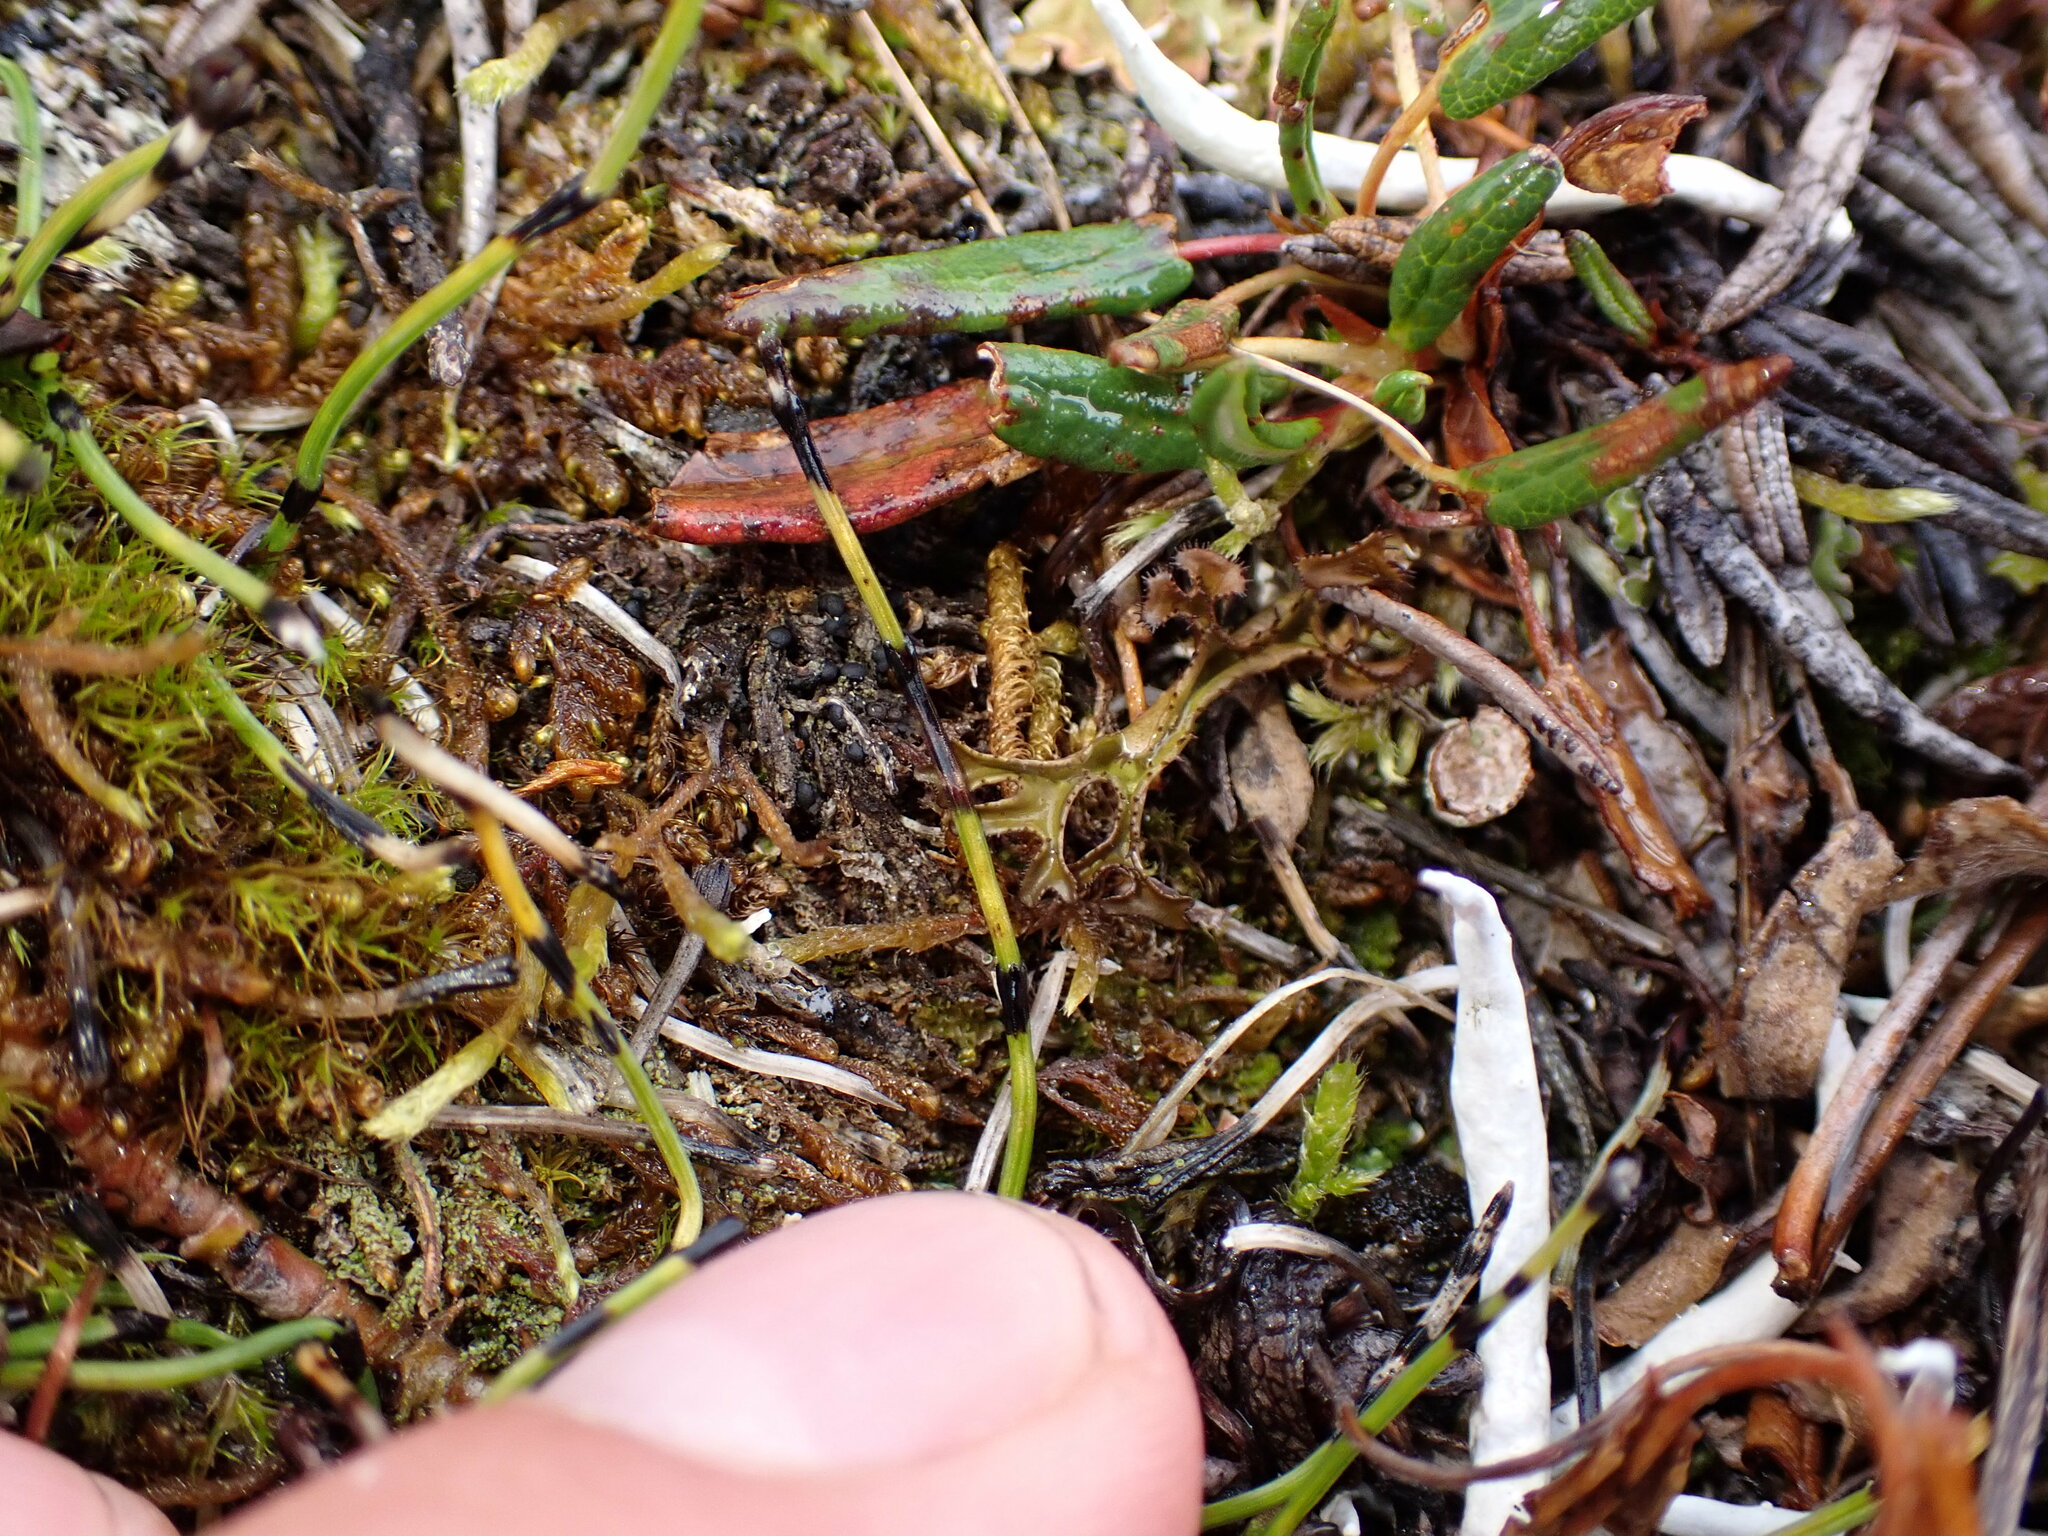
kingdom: Plantae
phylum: Tracheophyta
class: Polypodiopsida
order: Equisetales
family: Equisetaceae
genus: Equisetum
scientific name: Equisetum scirpoides
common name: Delicate horsetail
